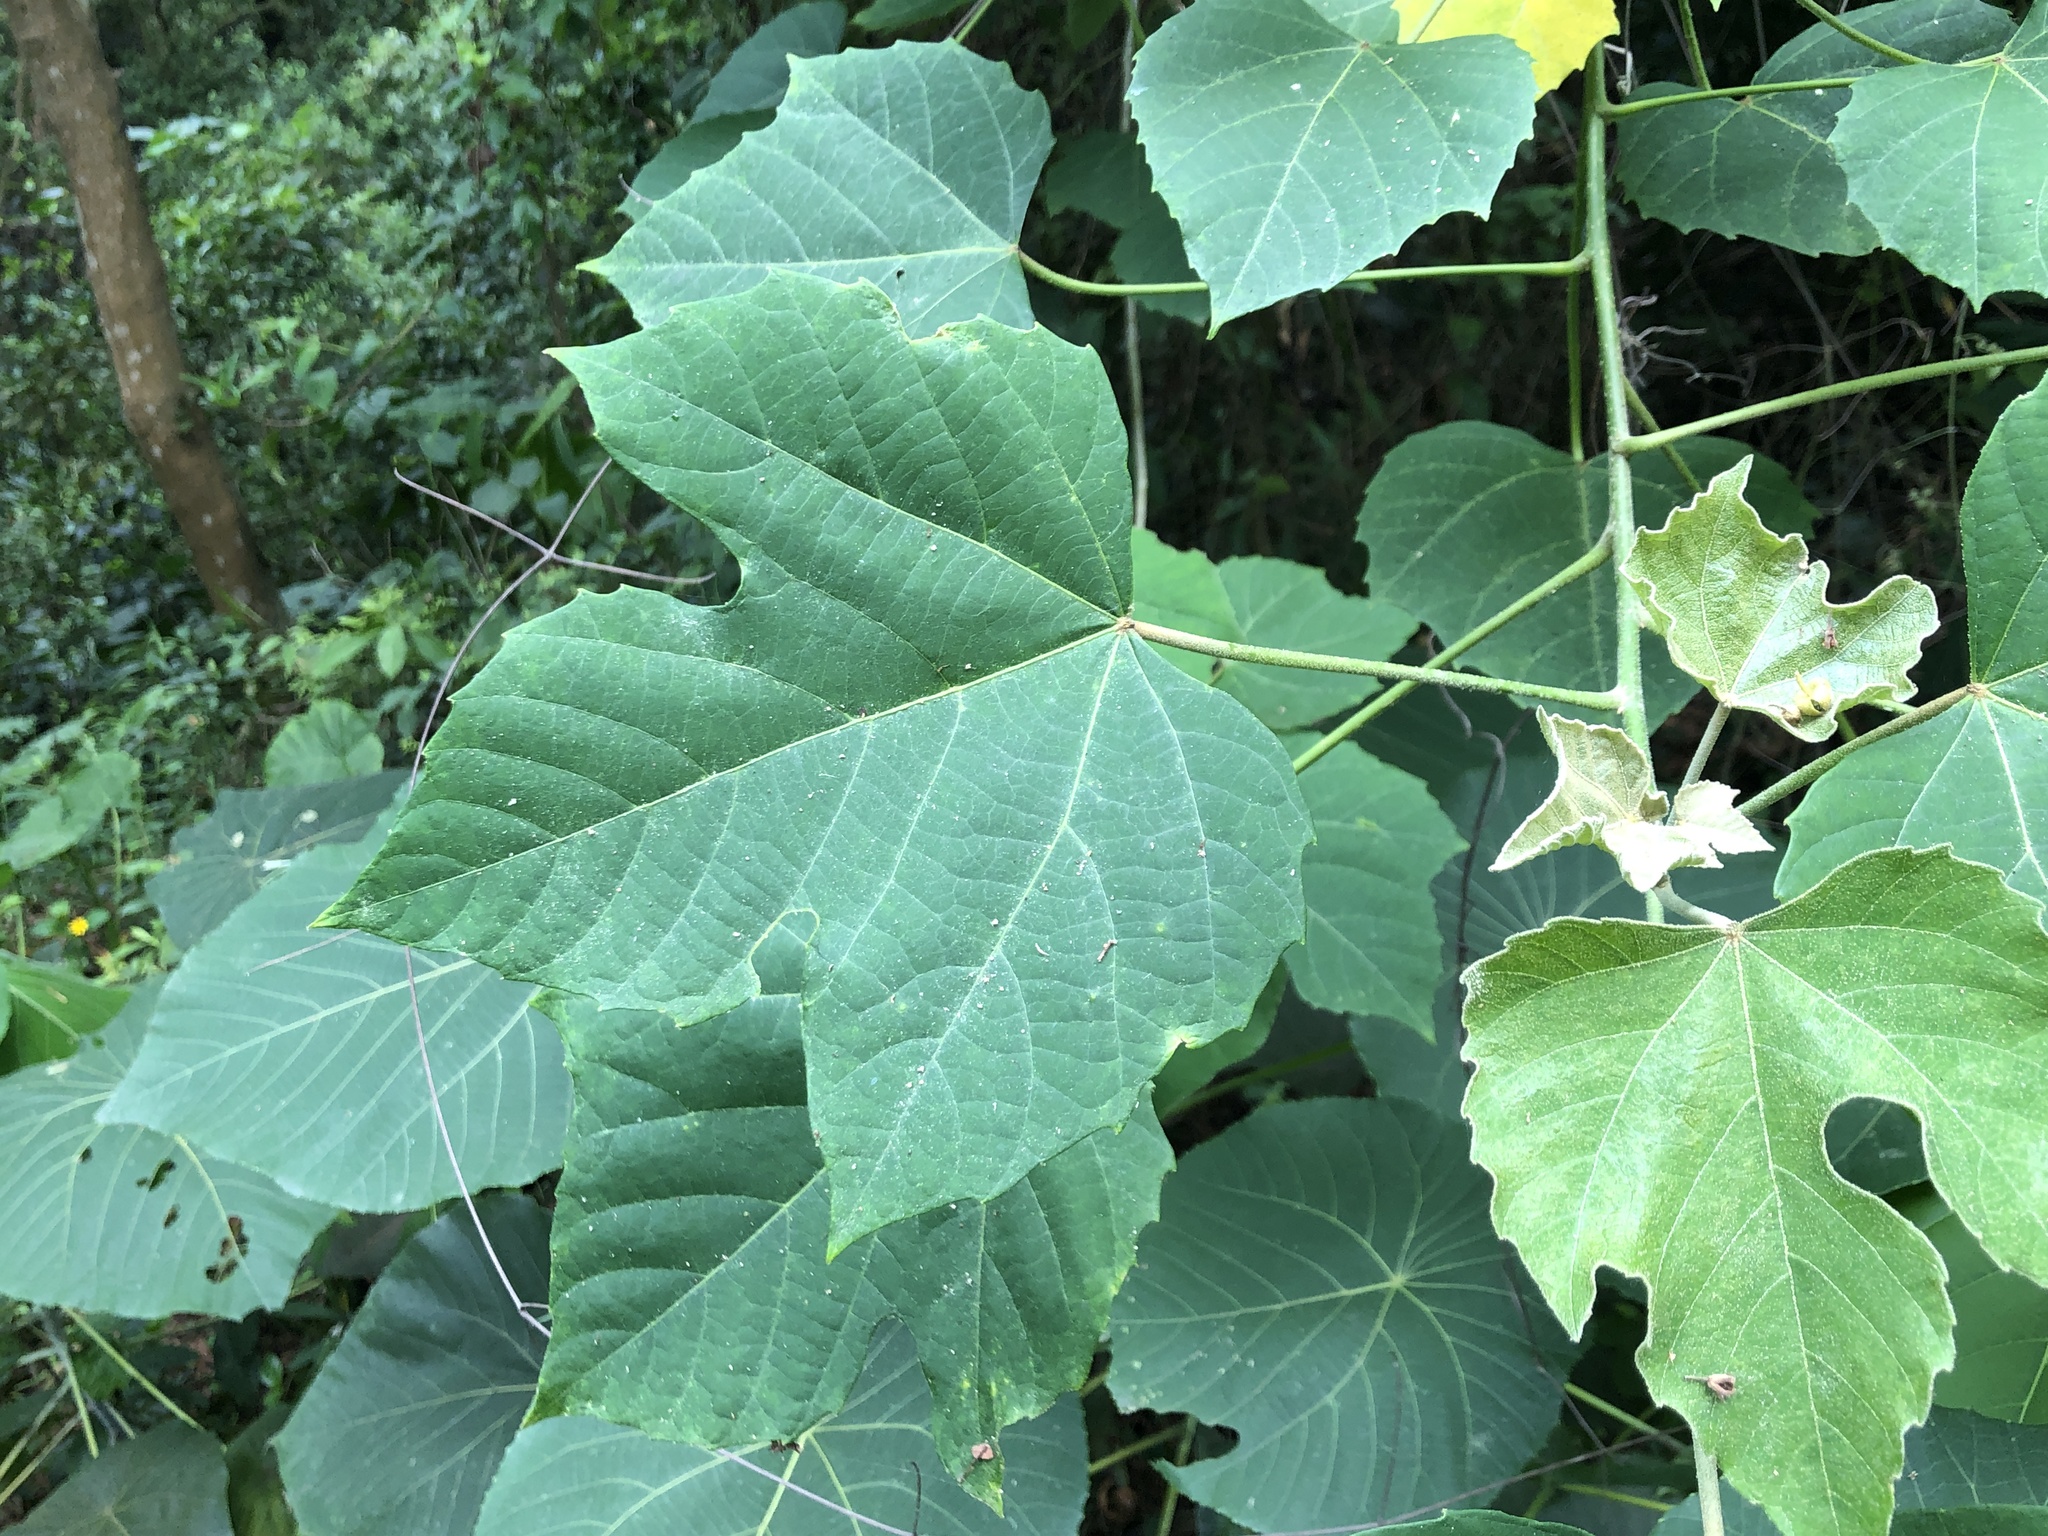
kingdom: Plantae
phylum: Tracheophyta
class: Magnoliopsida
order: Malpighiales
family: Euphorbiaceae
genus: Melanolepis
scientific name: Melanolepis multiglandulosa
